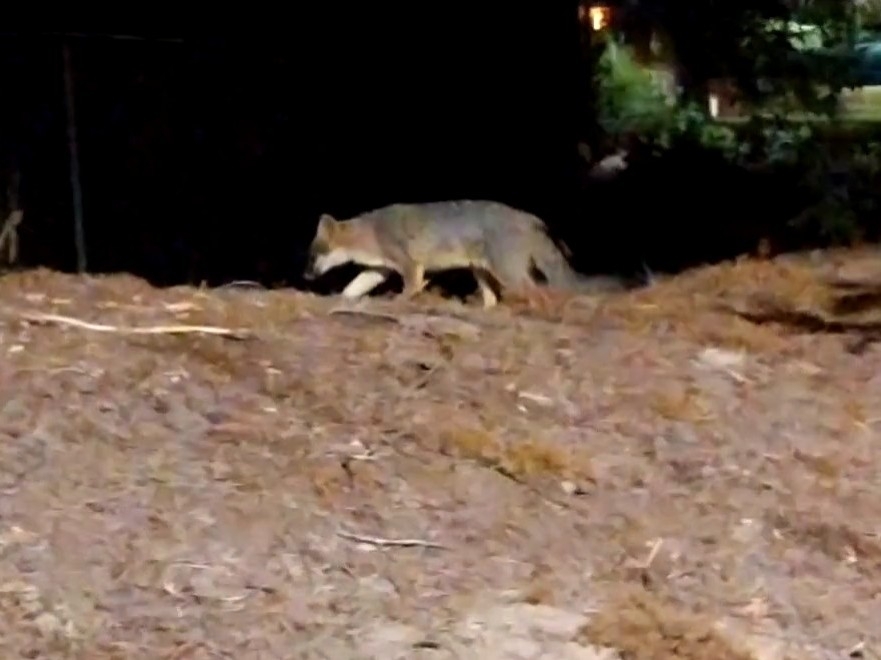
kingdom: Animalia
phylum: Chordata
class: Mammalia
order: Carnivora
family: Canidae
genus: Urocyon
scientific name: Urocyon cinereoargenteus
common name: Gray fox
